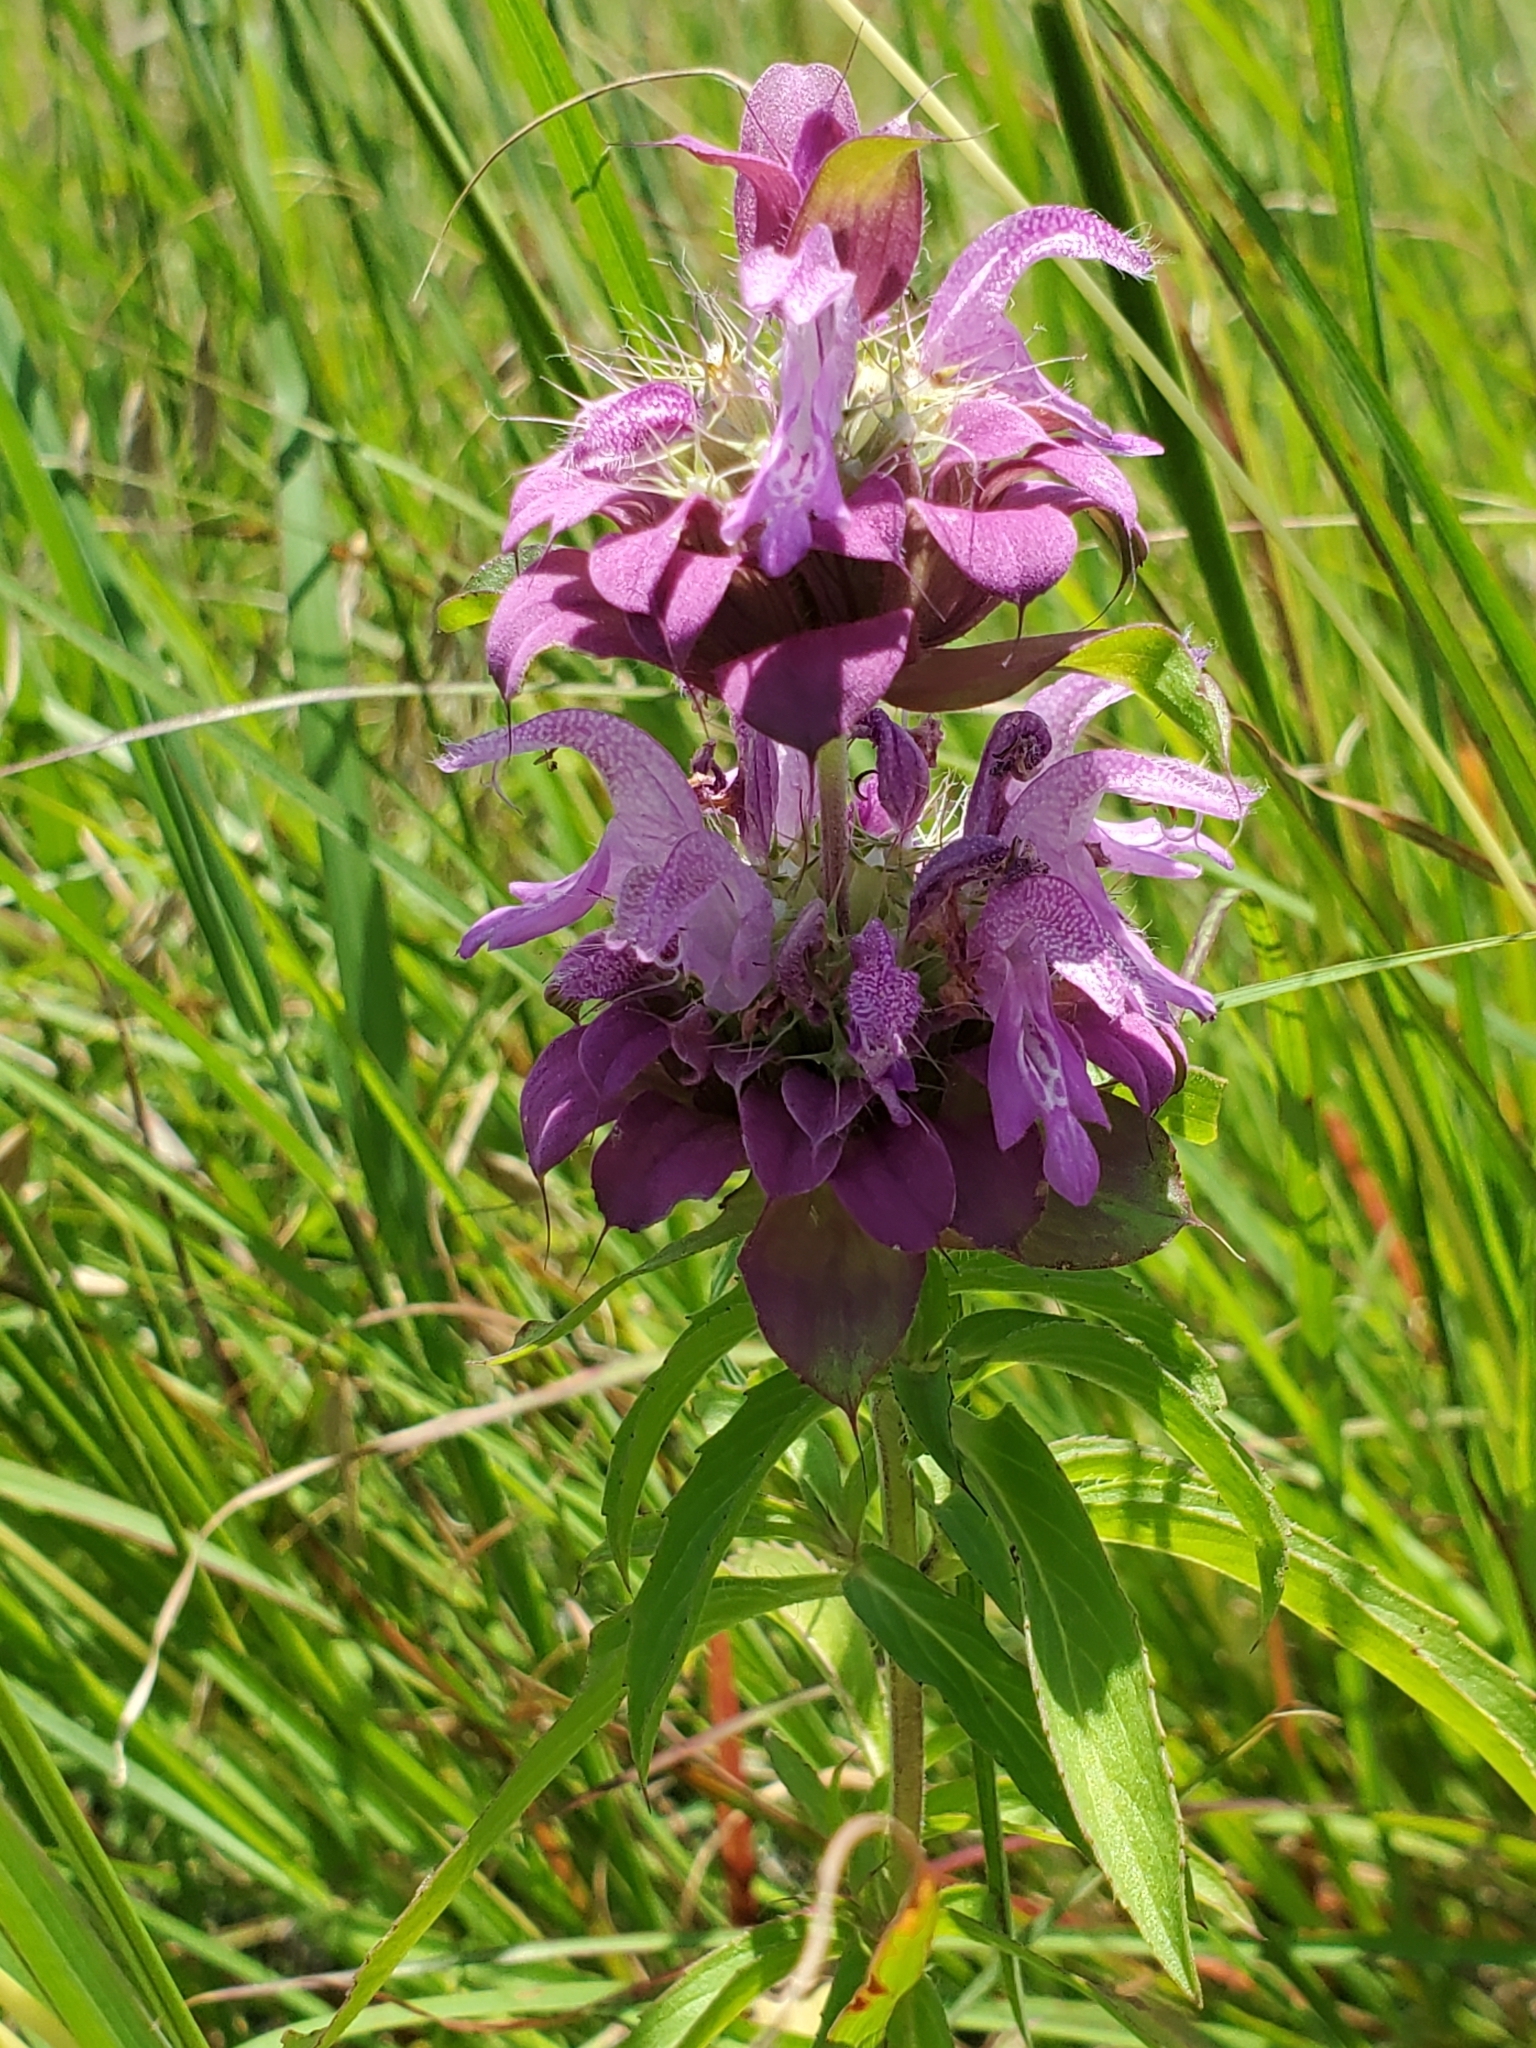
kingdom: Plantae
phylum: Tracheophyta
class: Magnoliopsida
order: Lamiales
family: Lamiaceae
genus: Monarda
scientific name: Monarda citriodora
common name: Lemon beebalm
